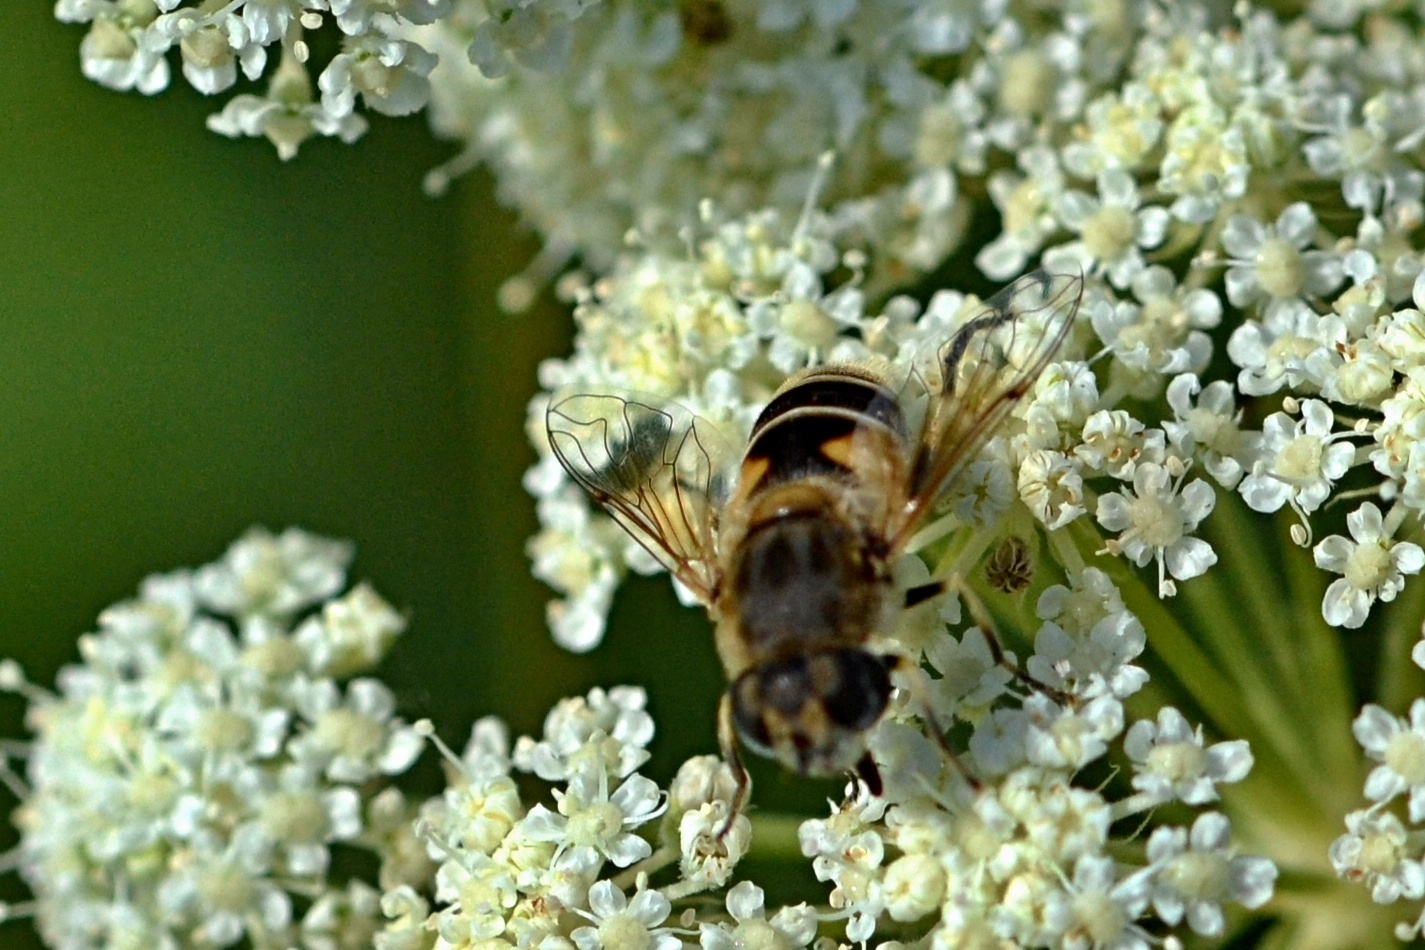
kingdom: Animalia
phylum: Arthropoda
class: Insecta
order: Diptera
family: Syrphidae
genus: Eristalis
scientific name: Eristalis arbustorum
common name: Hover fly
